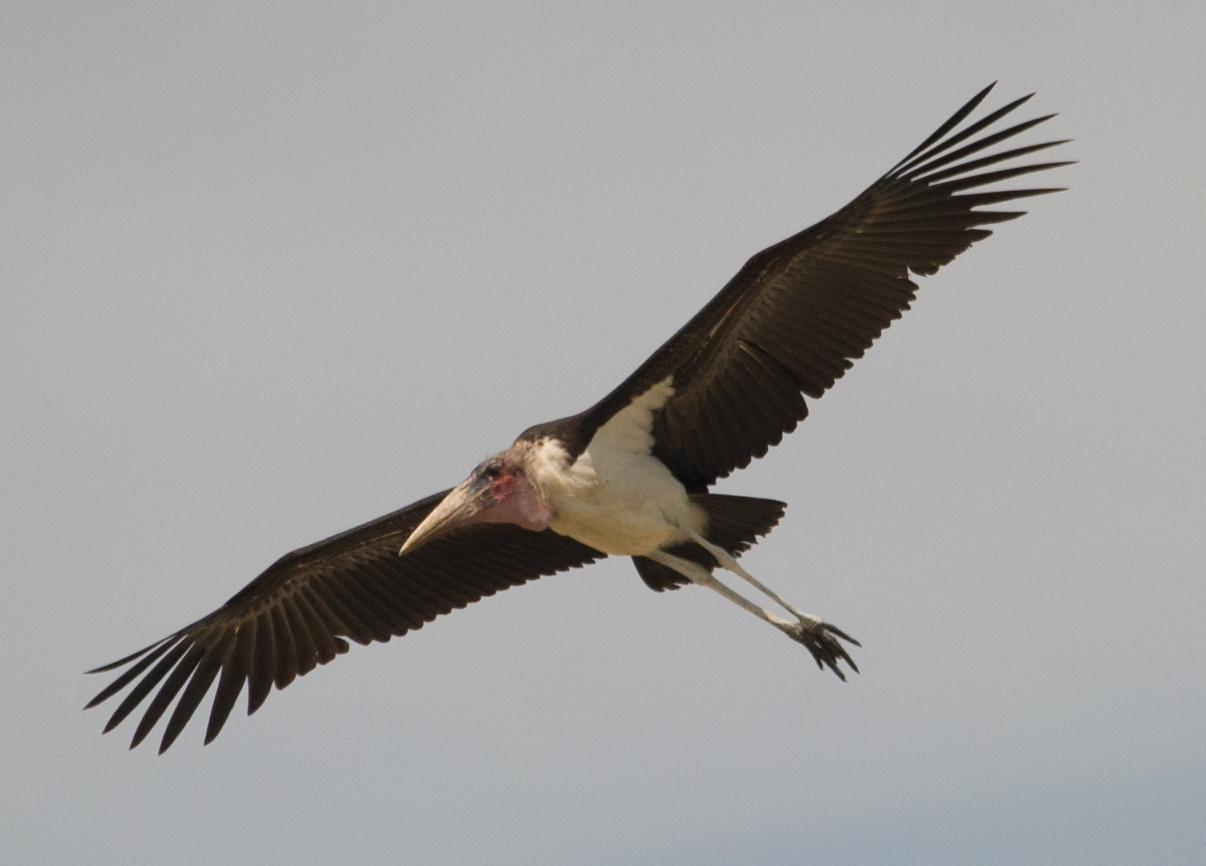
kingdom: Animalia
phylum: Chordata
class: Aves
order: Ciconiiformes
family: Ciconiidae
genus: Leptoptilos
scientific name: Leptoptilos crumenifer
